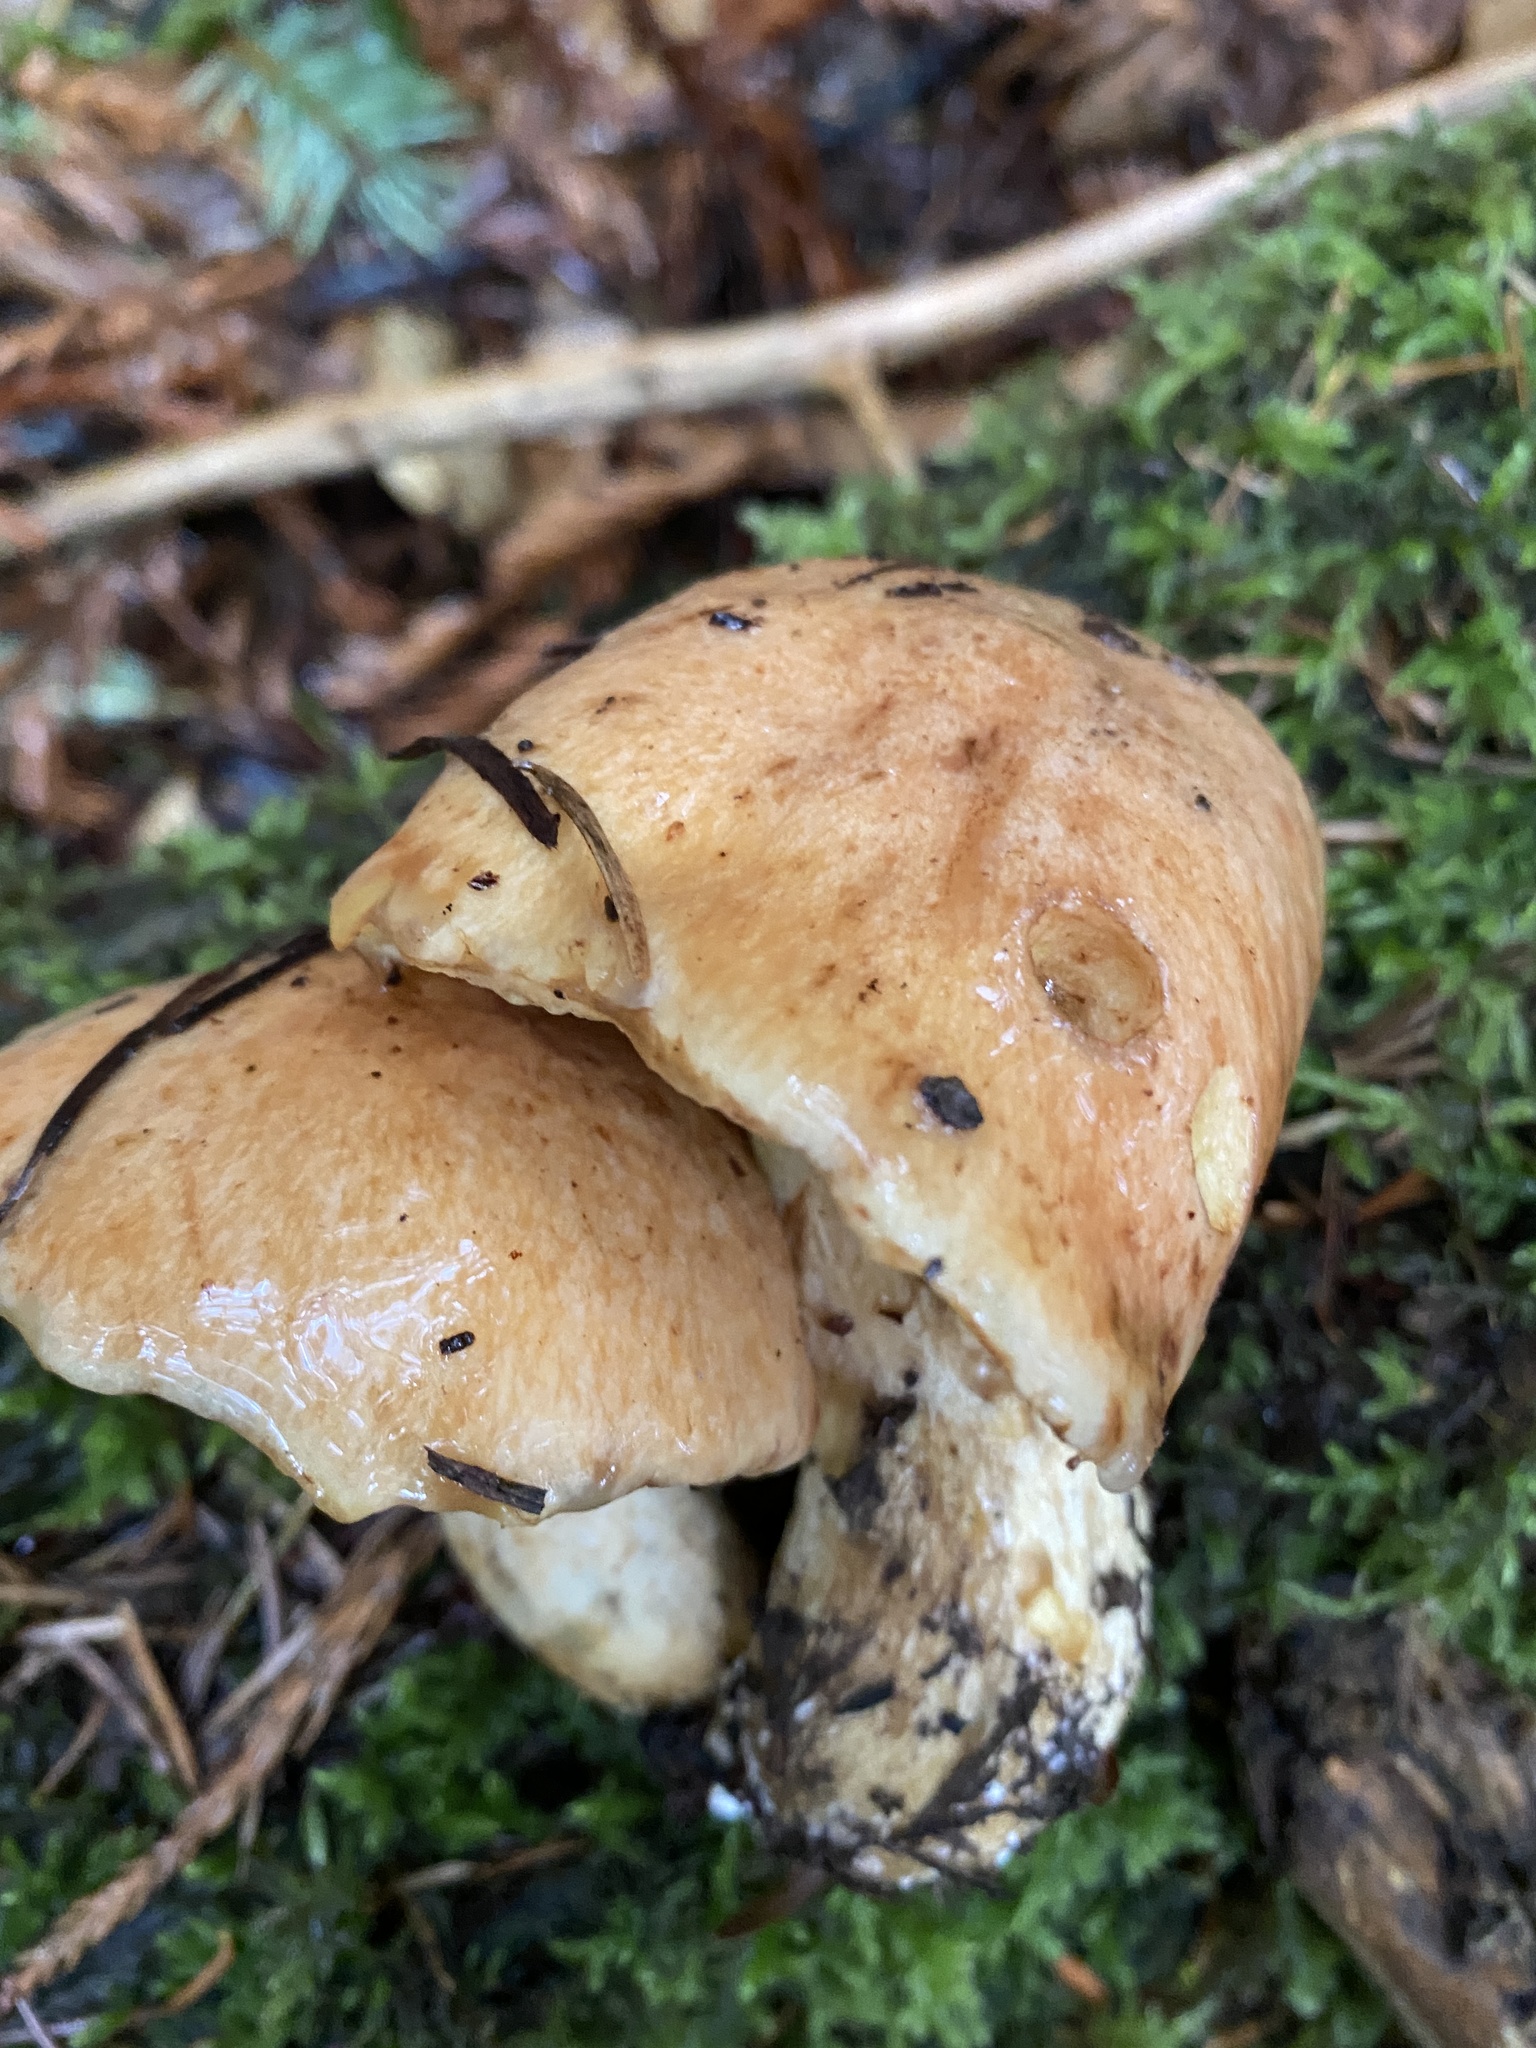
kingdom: Fungi
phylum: Basidiomycota
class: Agaricomycetes
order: Boletales
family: Suillaceae
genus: Suillus
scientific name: Suillus caerulescens
